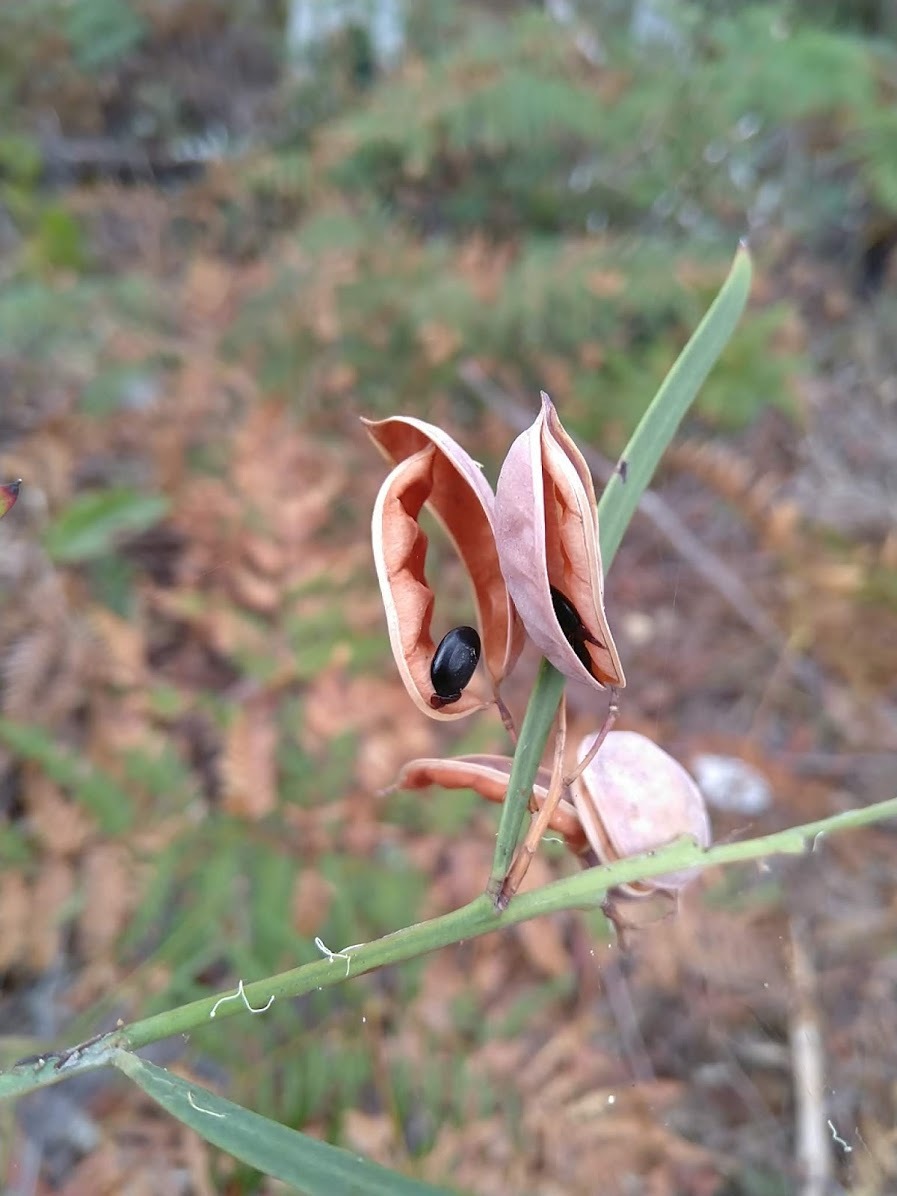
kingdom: Plantae
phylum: Tracheophyta
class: Magnoliopsida
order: Fabales
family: Fabaceae
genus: Acacia
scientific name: Acacia suaveolens
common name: Sweet acacia
